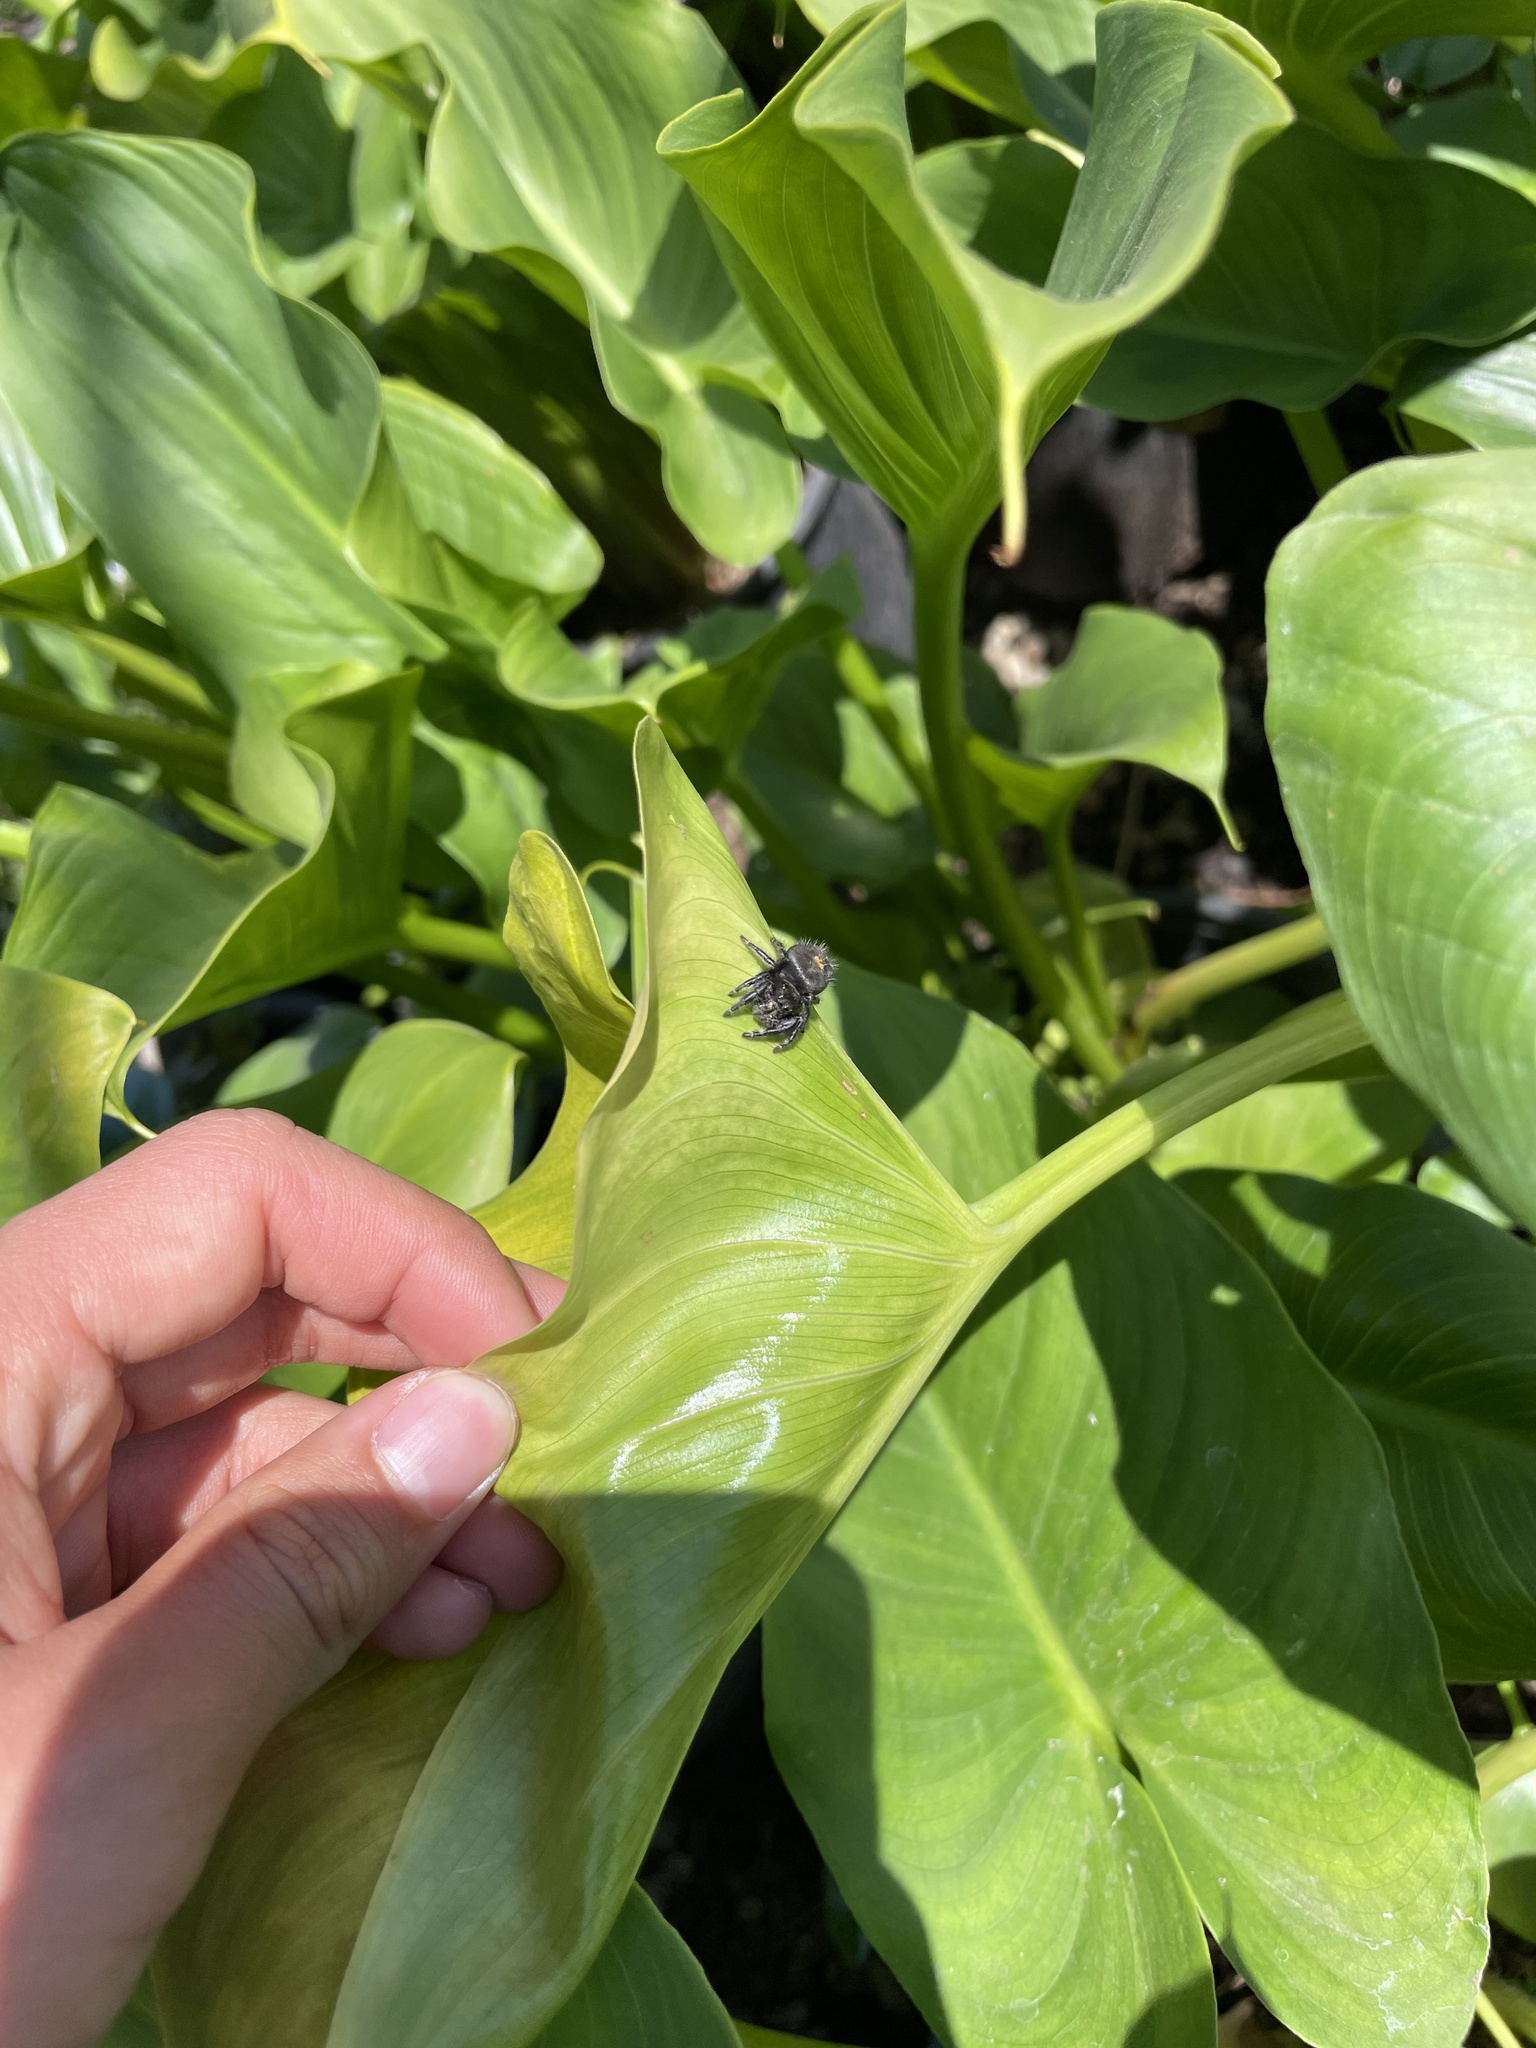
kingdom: Animalia
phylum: Arthropoda
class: Arachnida
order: Araneae
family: Salticidae
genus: Phidippus
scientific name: Phidippus audax
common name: Bold jumper
